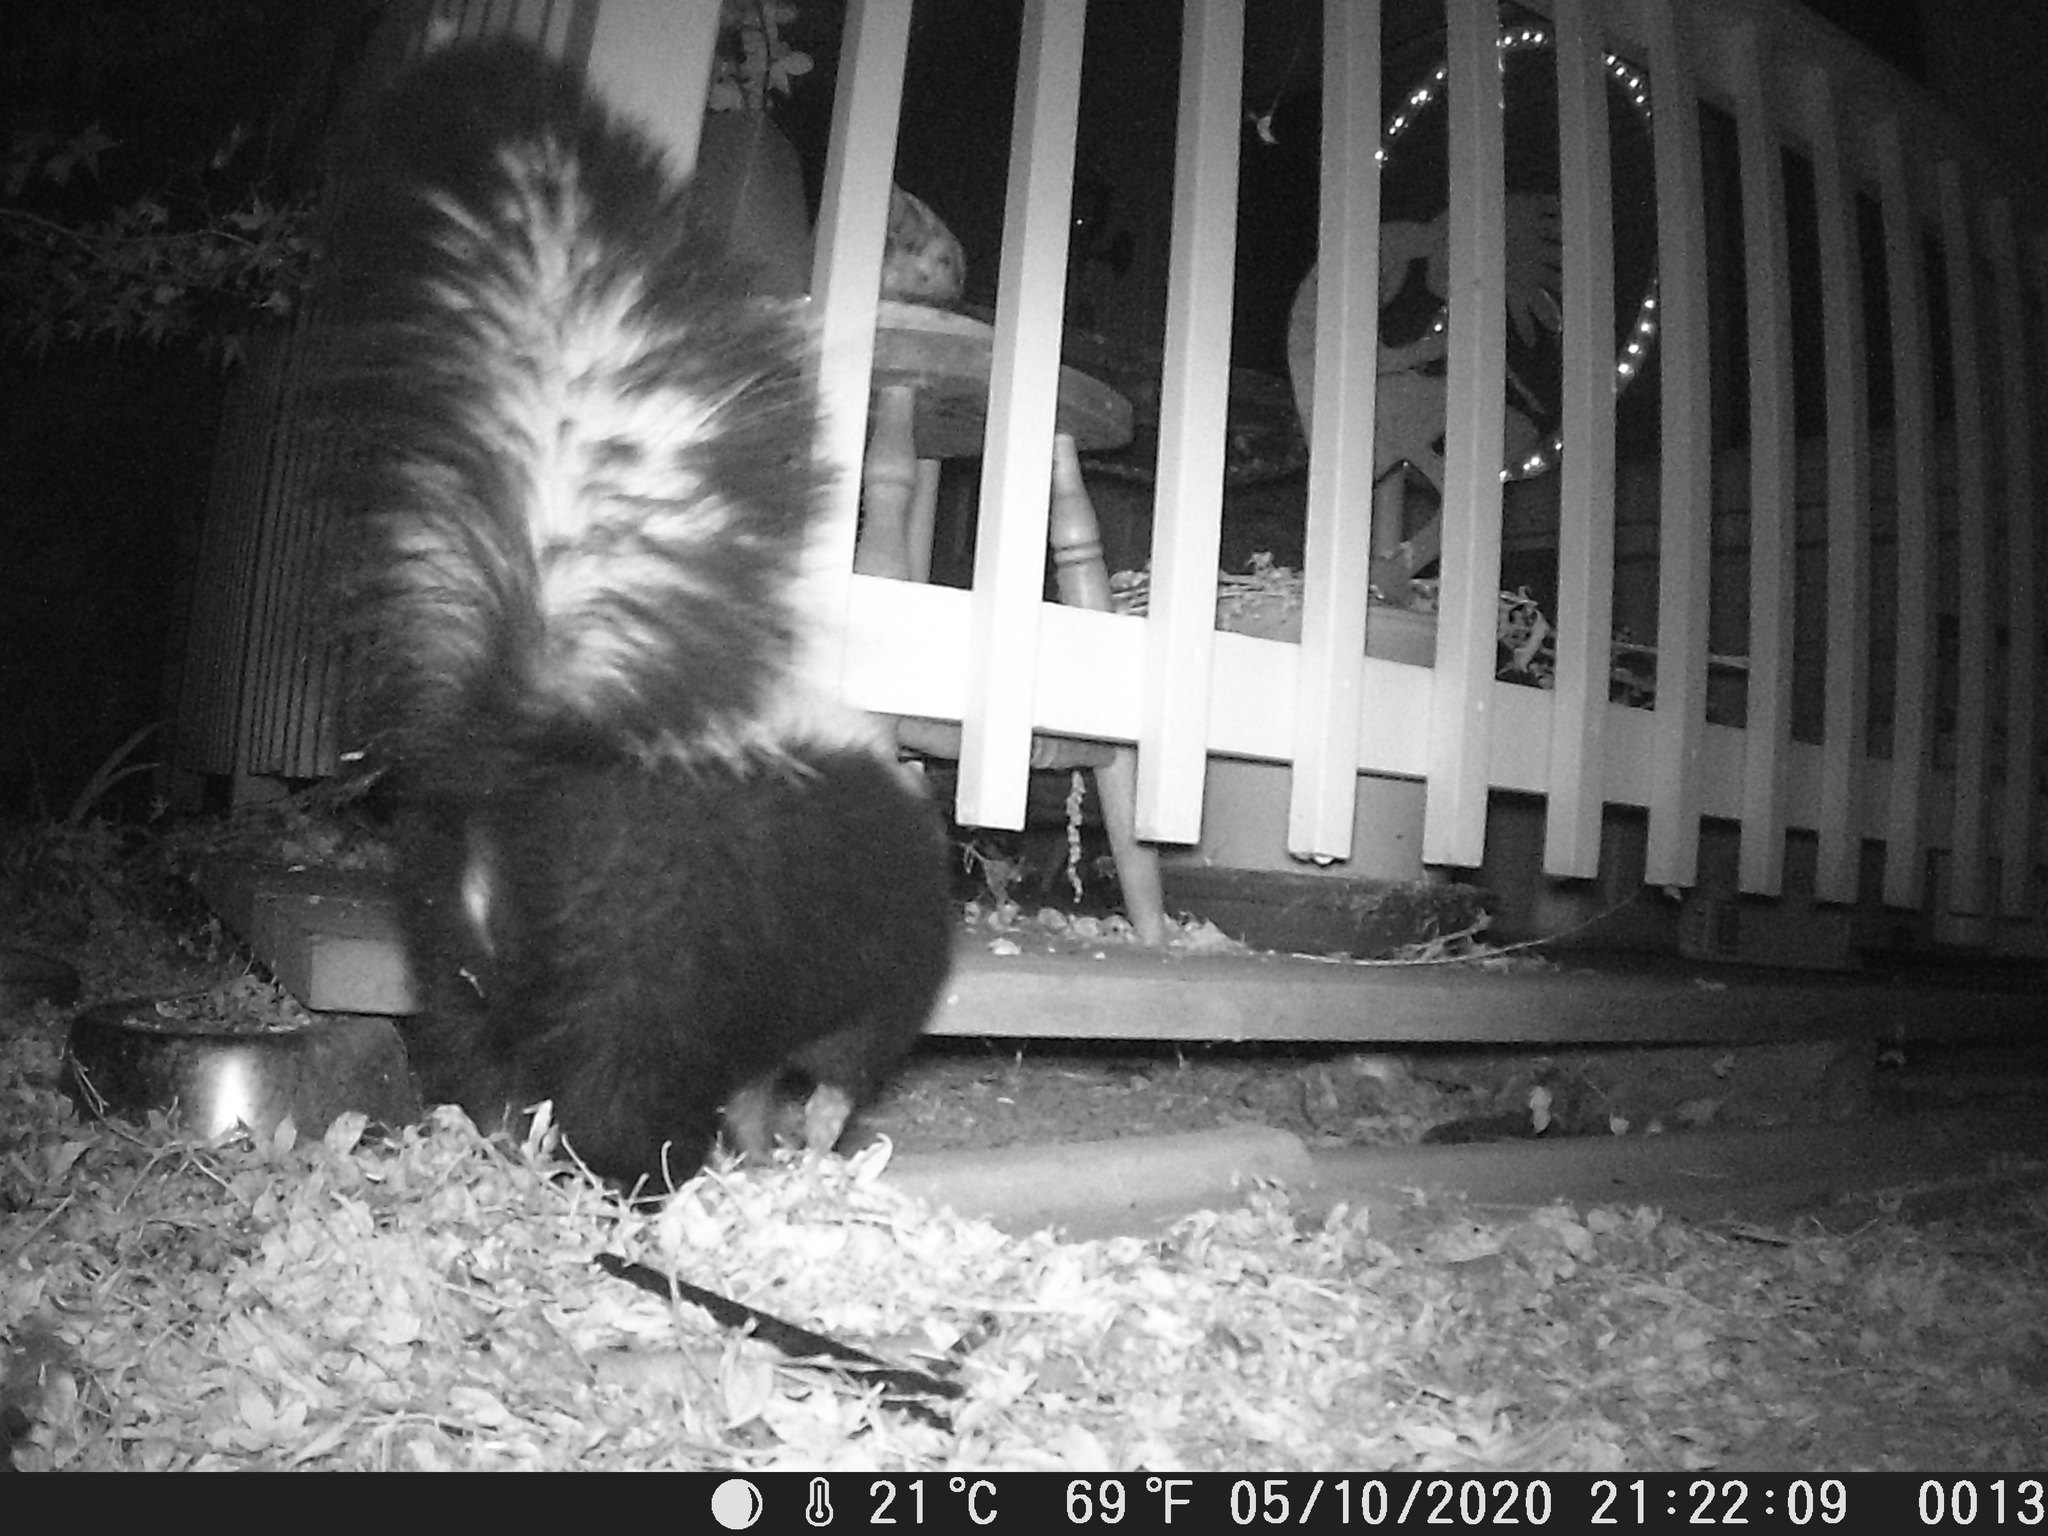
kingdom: Animalia
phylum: Chordata
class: Mammalia
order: Carnivora
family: Mephitidae
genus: Mephitis
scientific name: Mephitis mephitis
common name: Striped skunk
